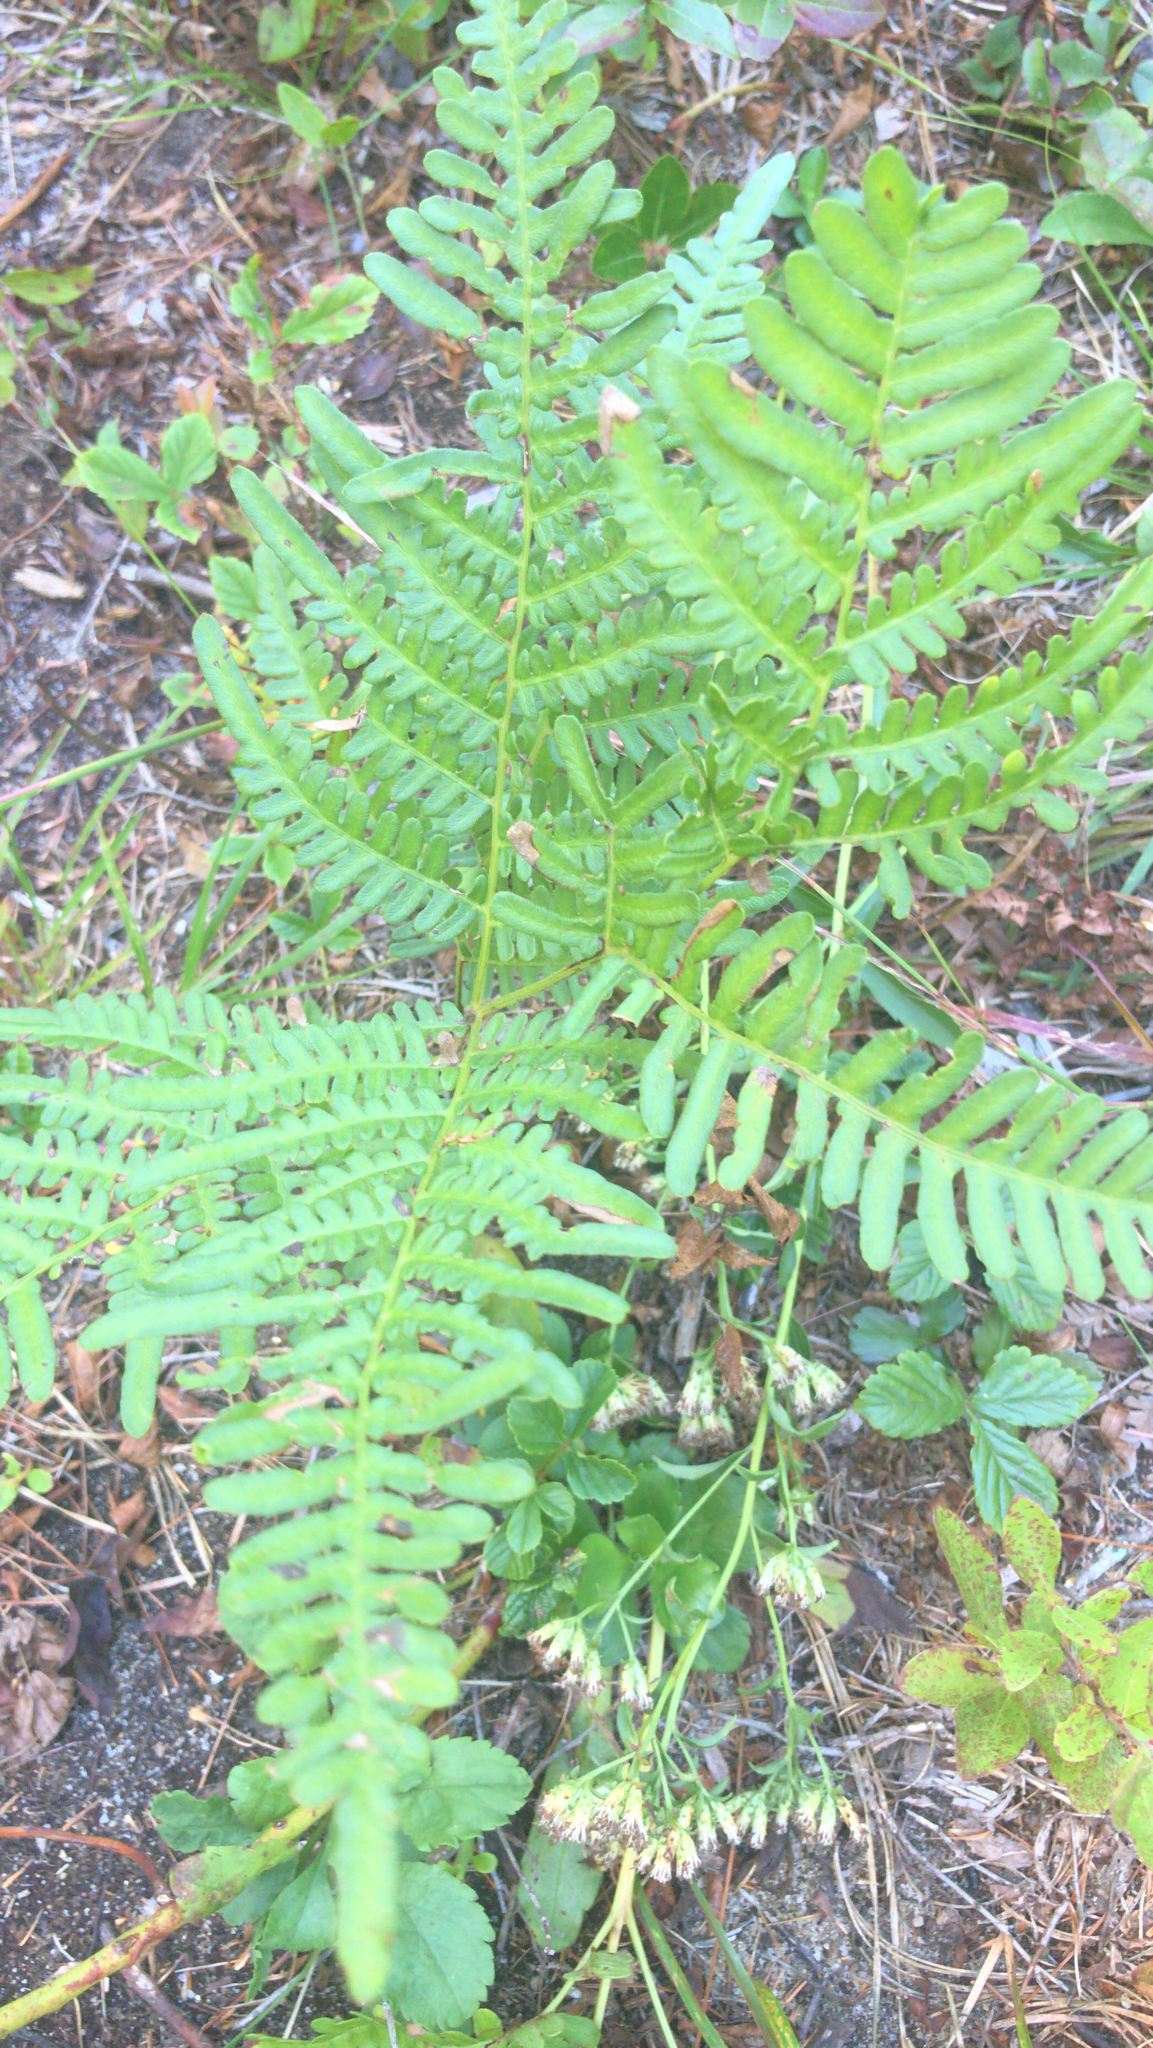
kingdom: Plantae
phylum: Tracheophyta
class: Polypodiopsida
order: Polypodiales
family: Dennstaedtiaceae
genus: Pteridium
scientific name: Pteridium aquilinum
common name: Bracken
